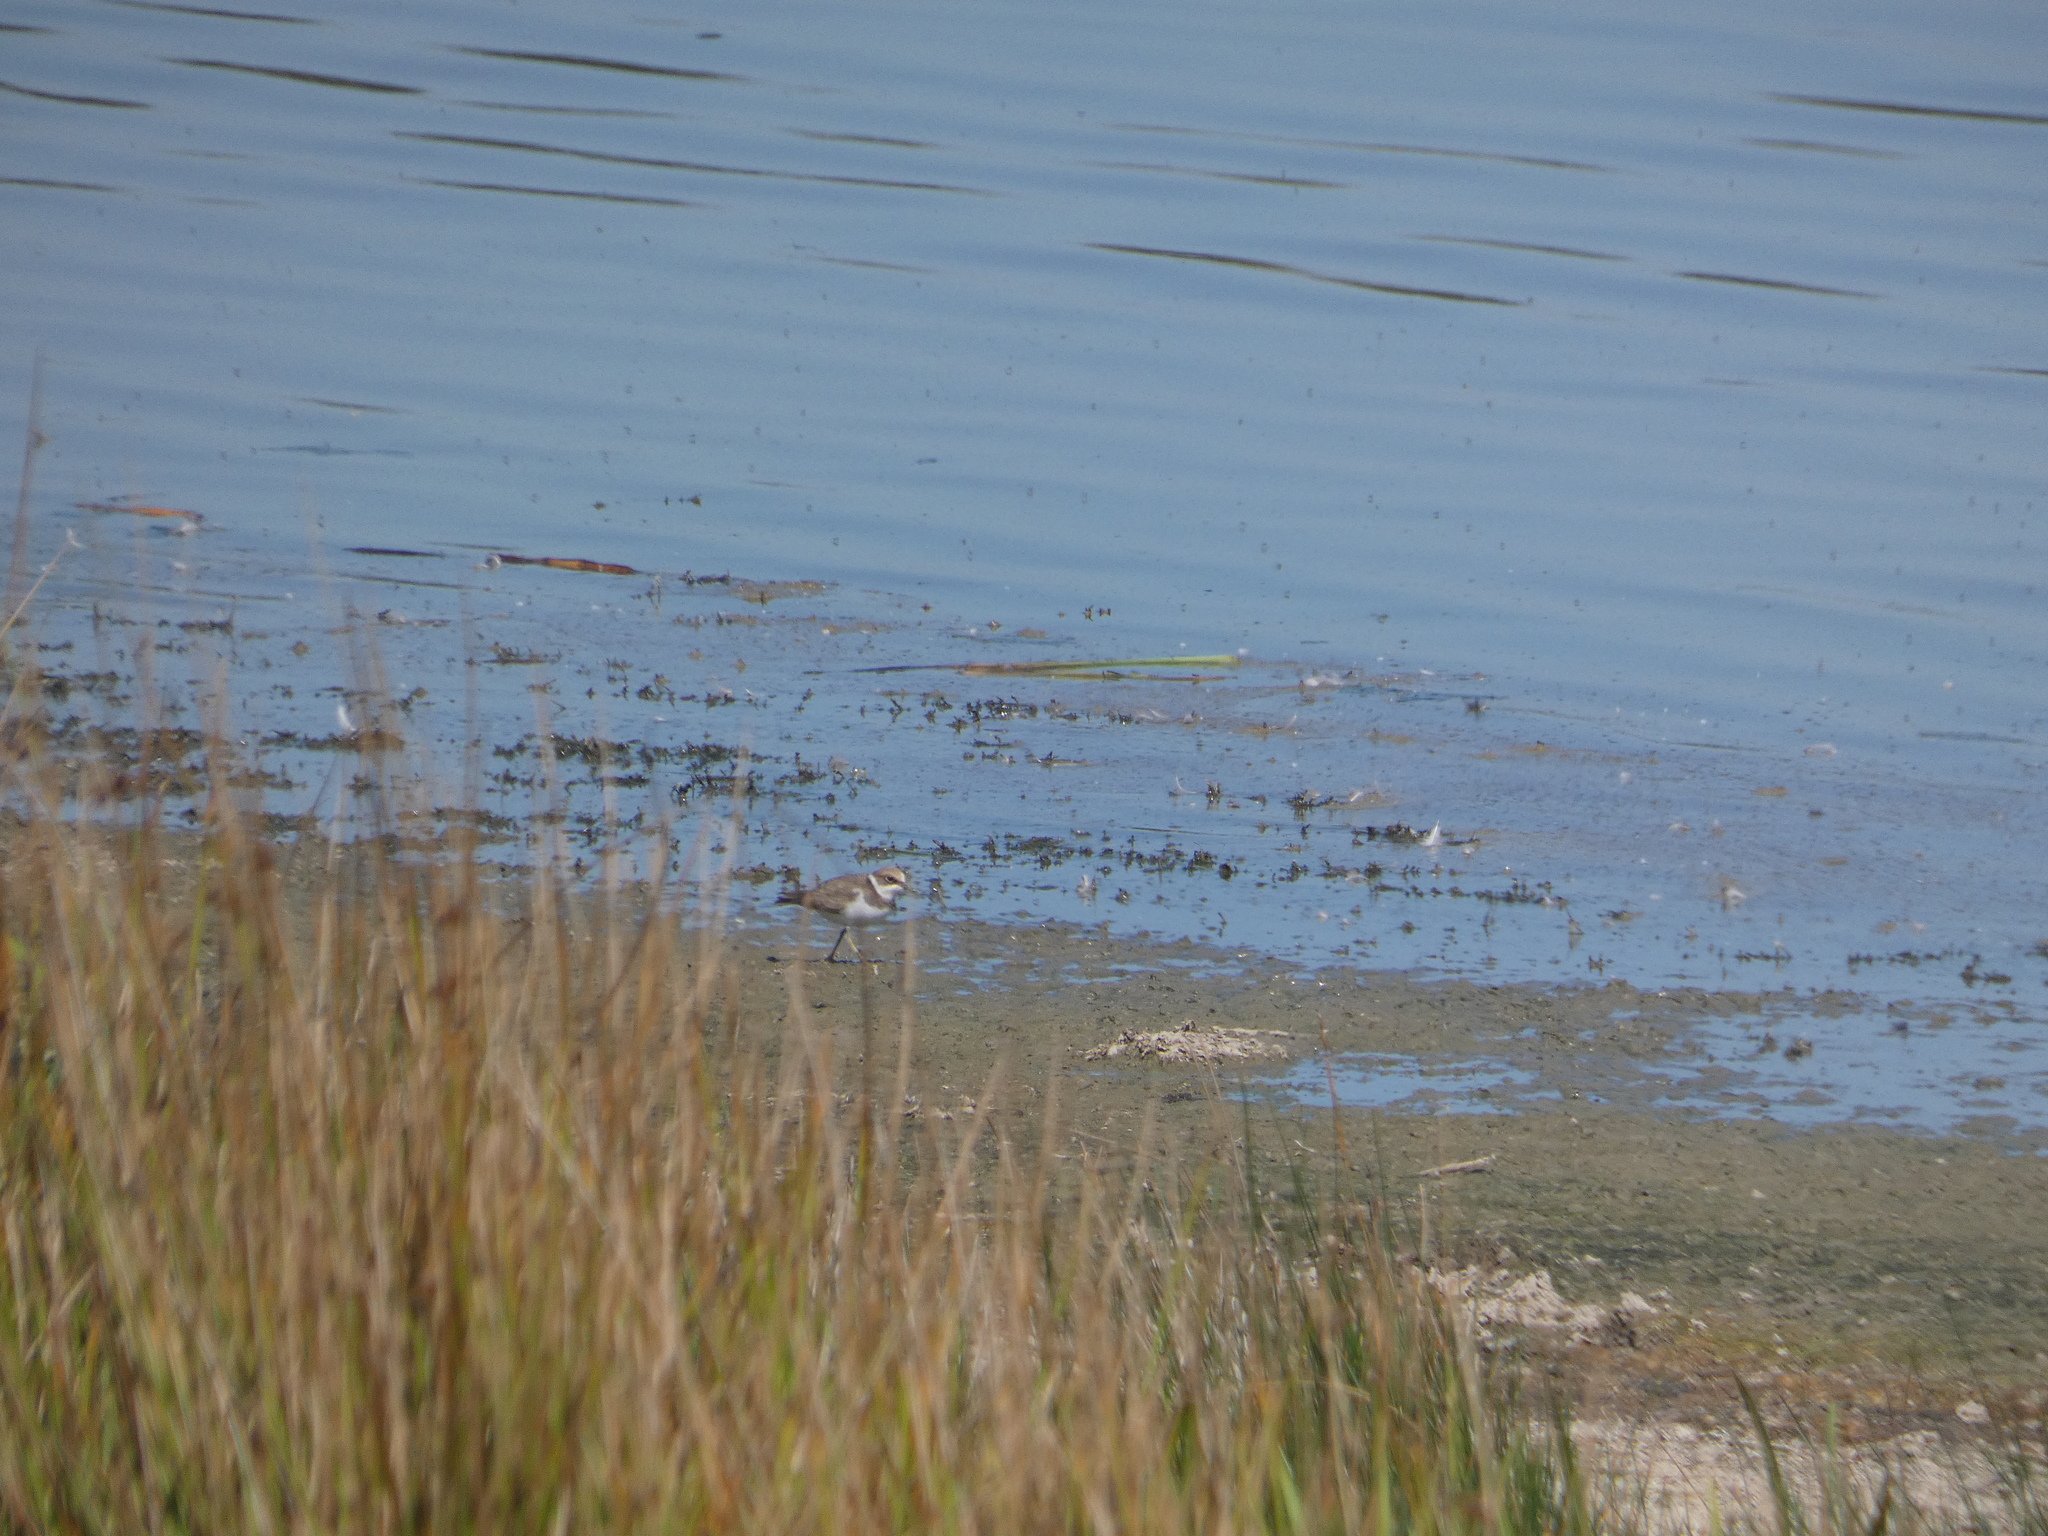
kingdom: Animalia
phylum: Chordata
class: Aves
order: Charadriiformes
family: Charadriidae
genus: Charadrius
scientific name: Charadrius dubius
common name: Little ringed plover
